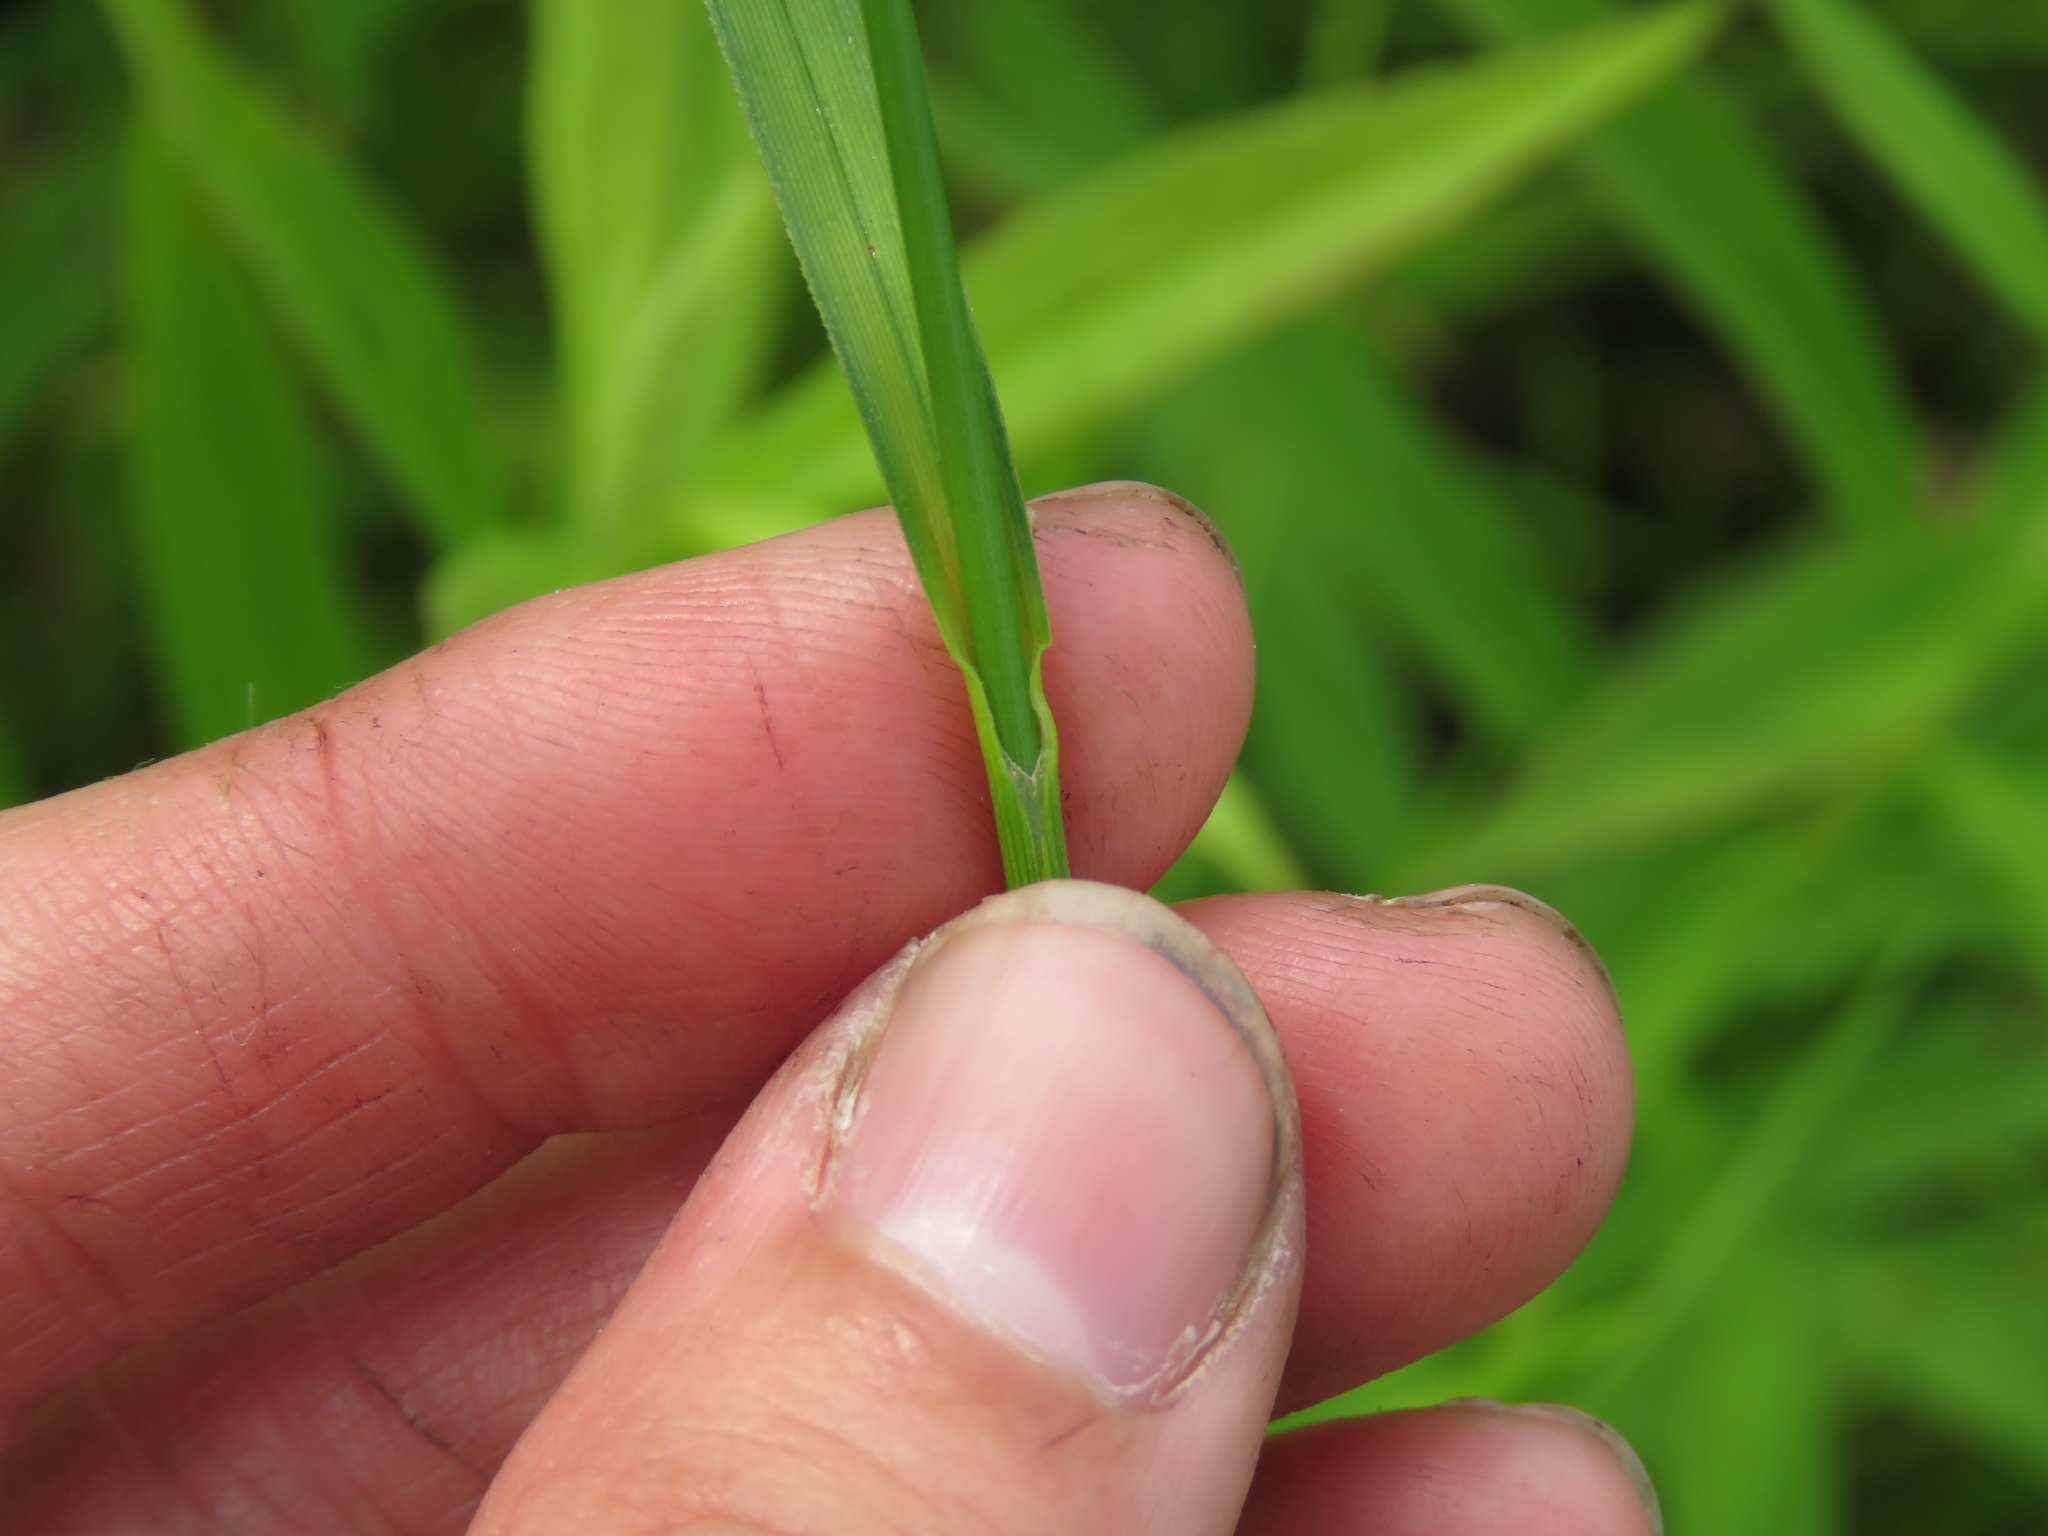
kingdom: Plantae
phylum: Tracheophyta
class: Liliopsida
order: Poales
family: Cyperaceae
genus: Scirpus
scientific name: Scirpus pendulus
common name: Nodding bulrush
